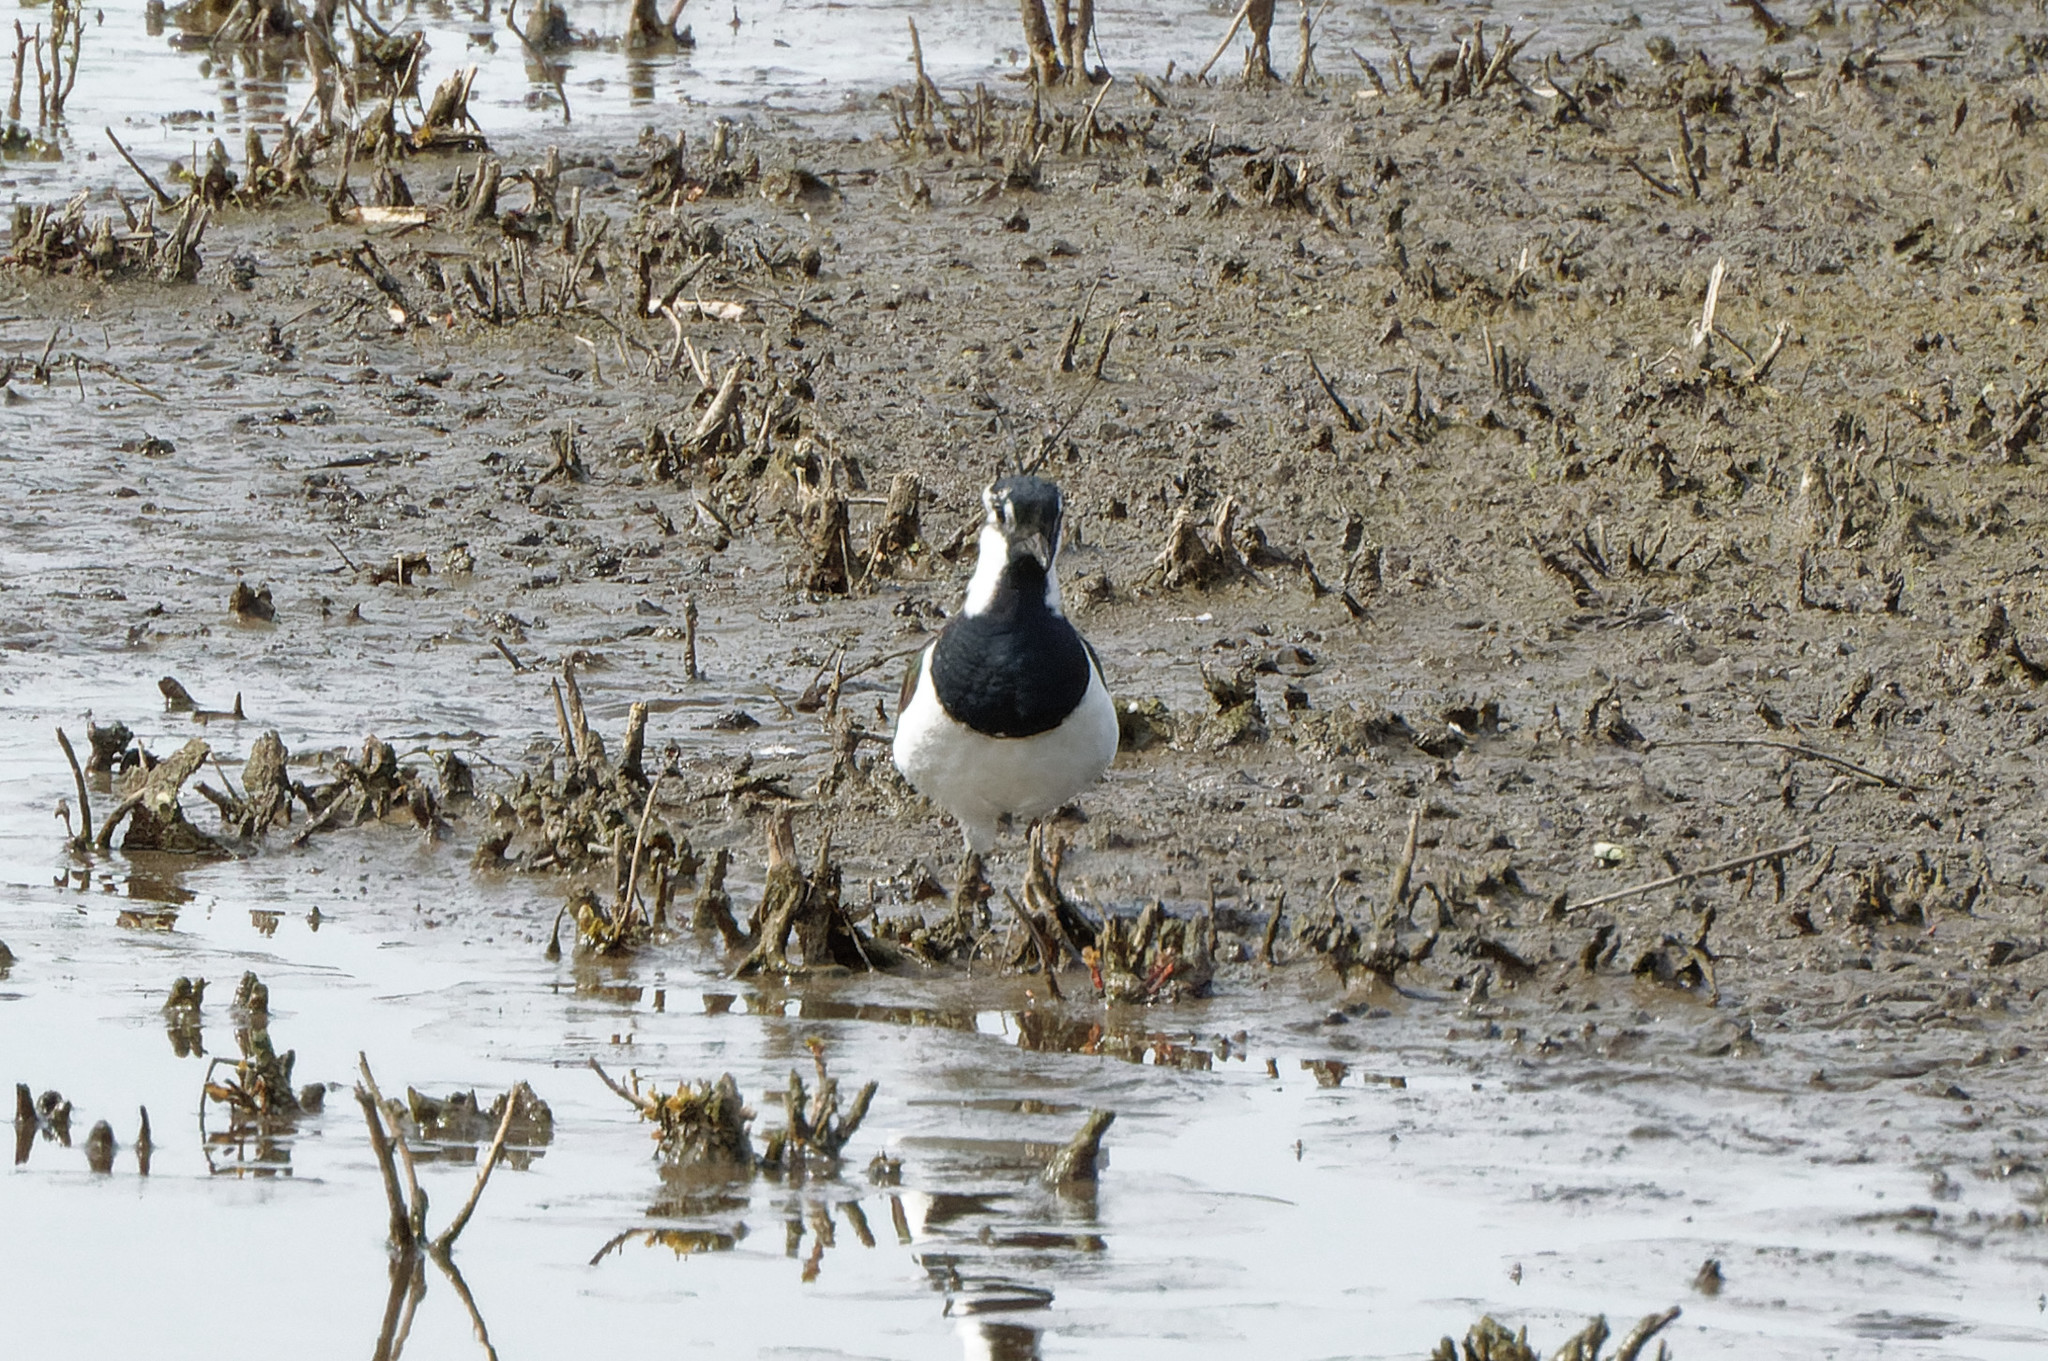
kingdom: Animalia
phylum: Chordata
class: Aves
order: Charadriiformes
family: Charadriidae
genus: Vanellus
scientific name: Vanellus vanellus
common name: Northern lapwing
